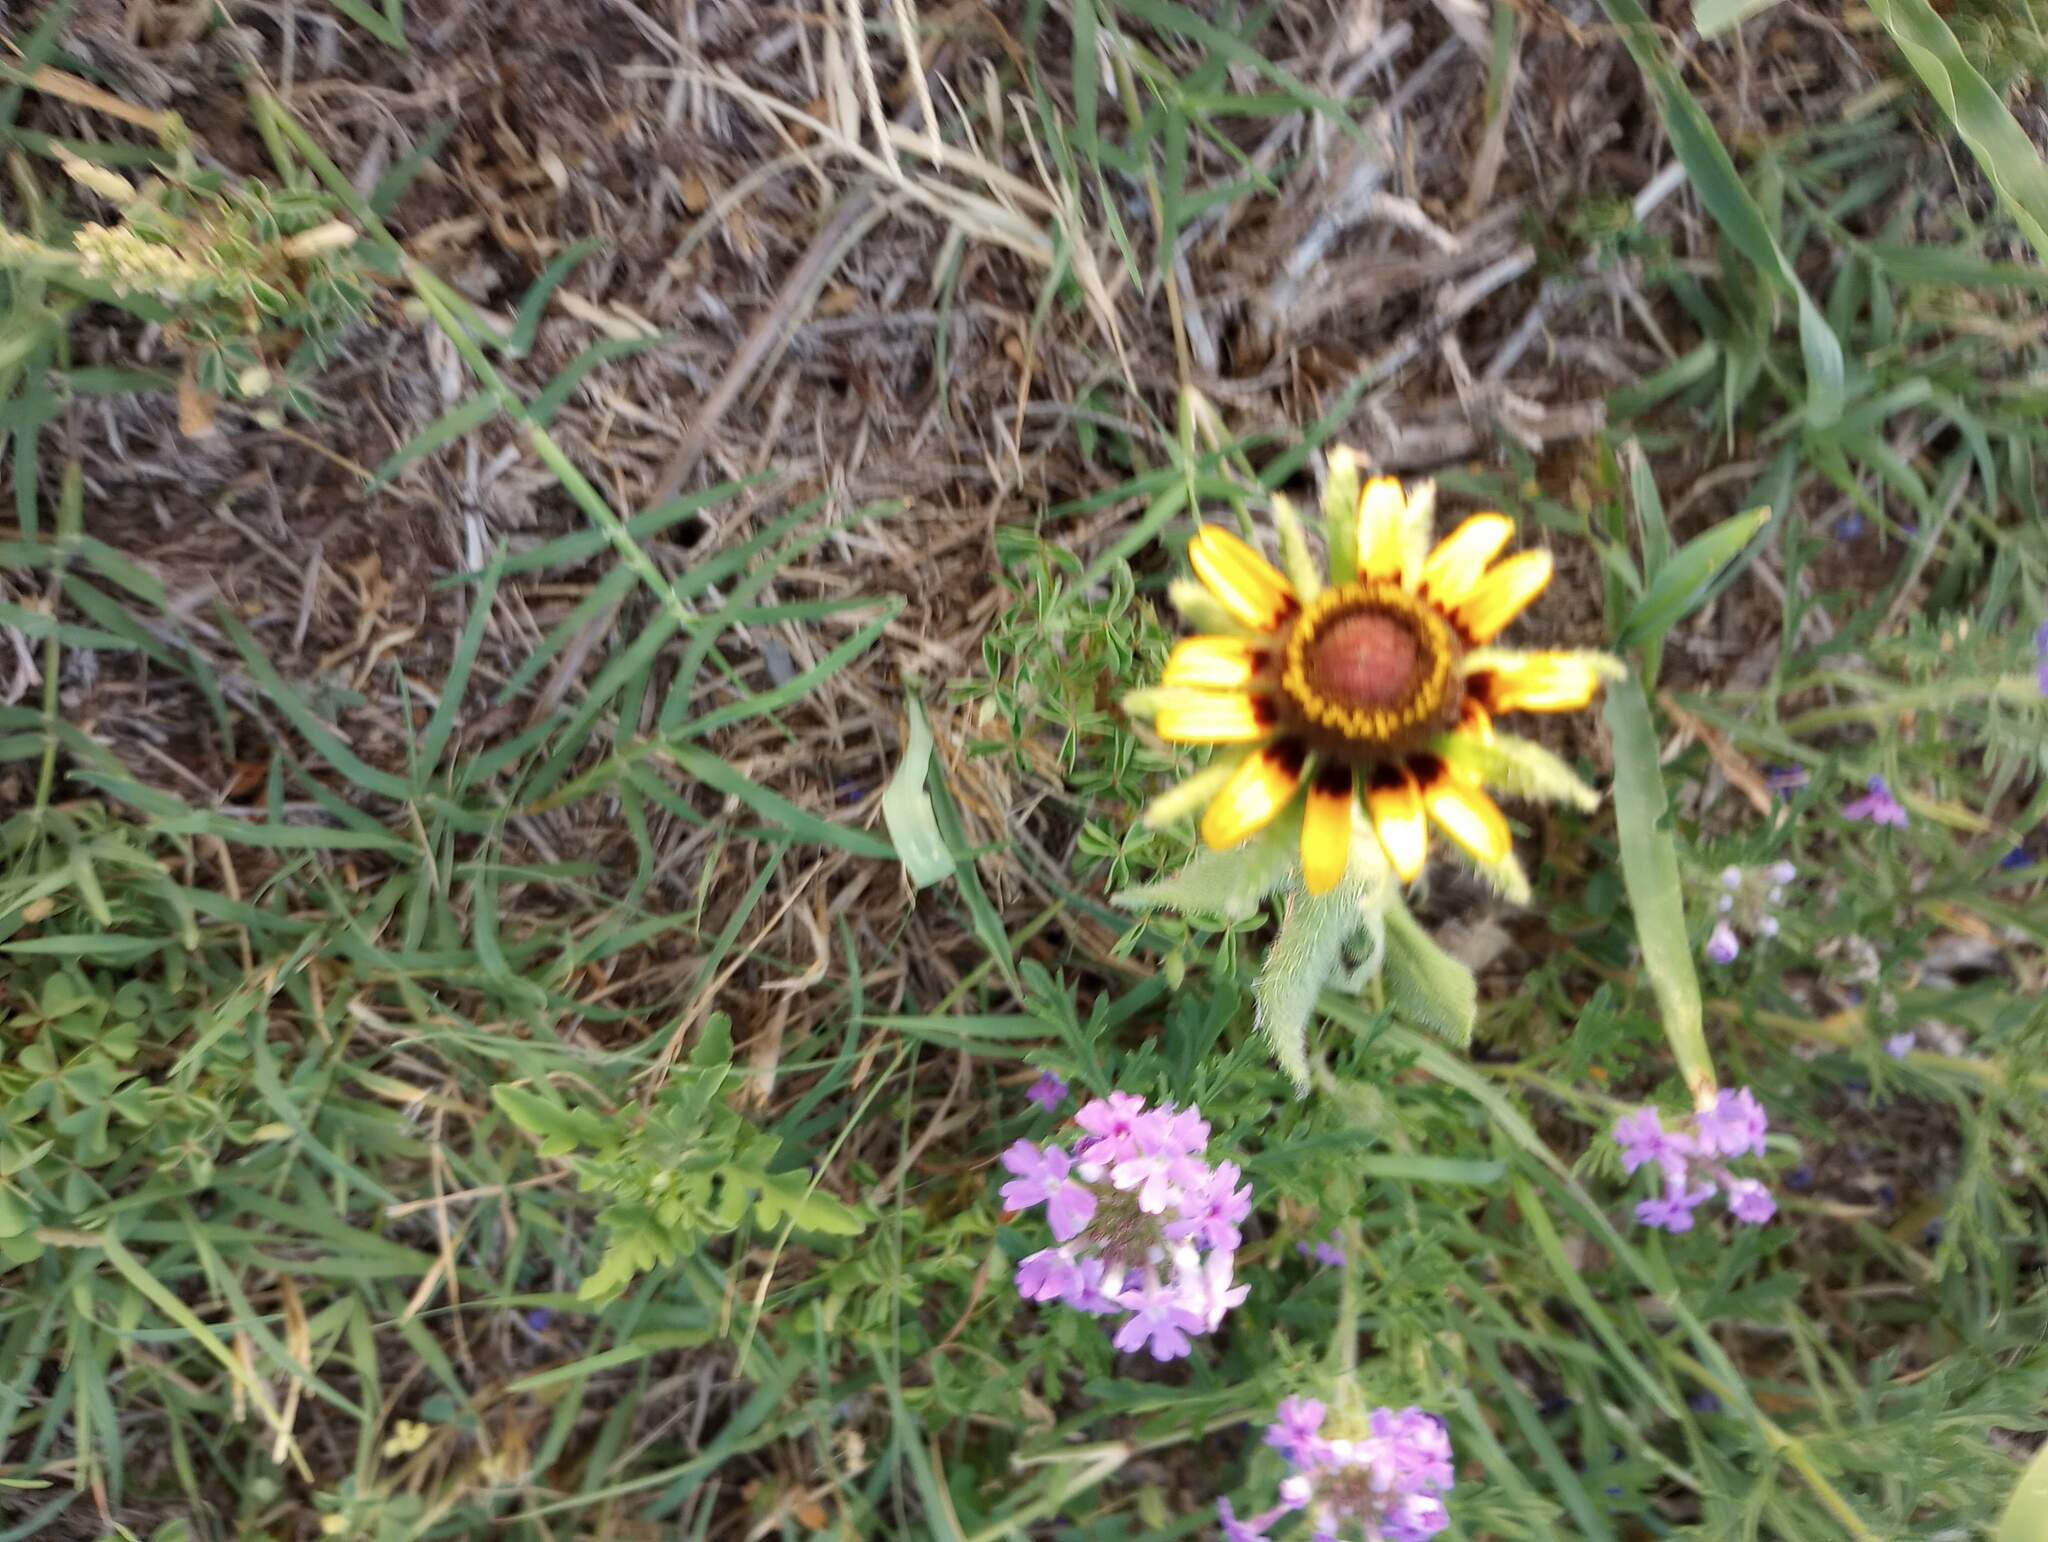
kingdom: Plantae
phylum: Tracheophyta
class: Magnoliopsida
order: Asterales
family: Asteraceae
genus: Rudbeckia
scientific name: Rudbeckia hirta
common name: Black-eyed-susan
